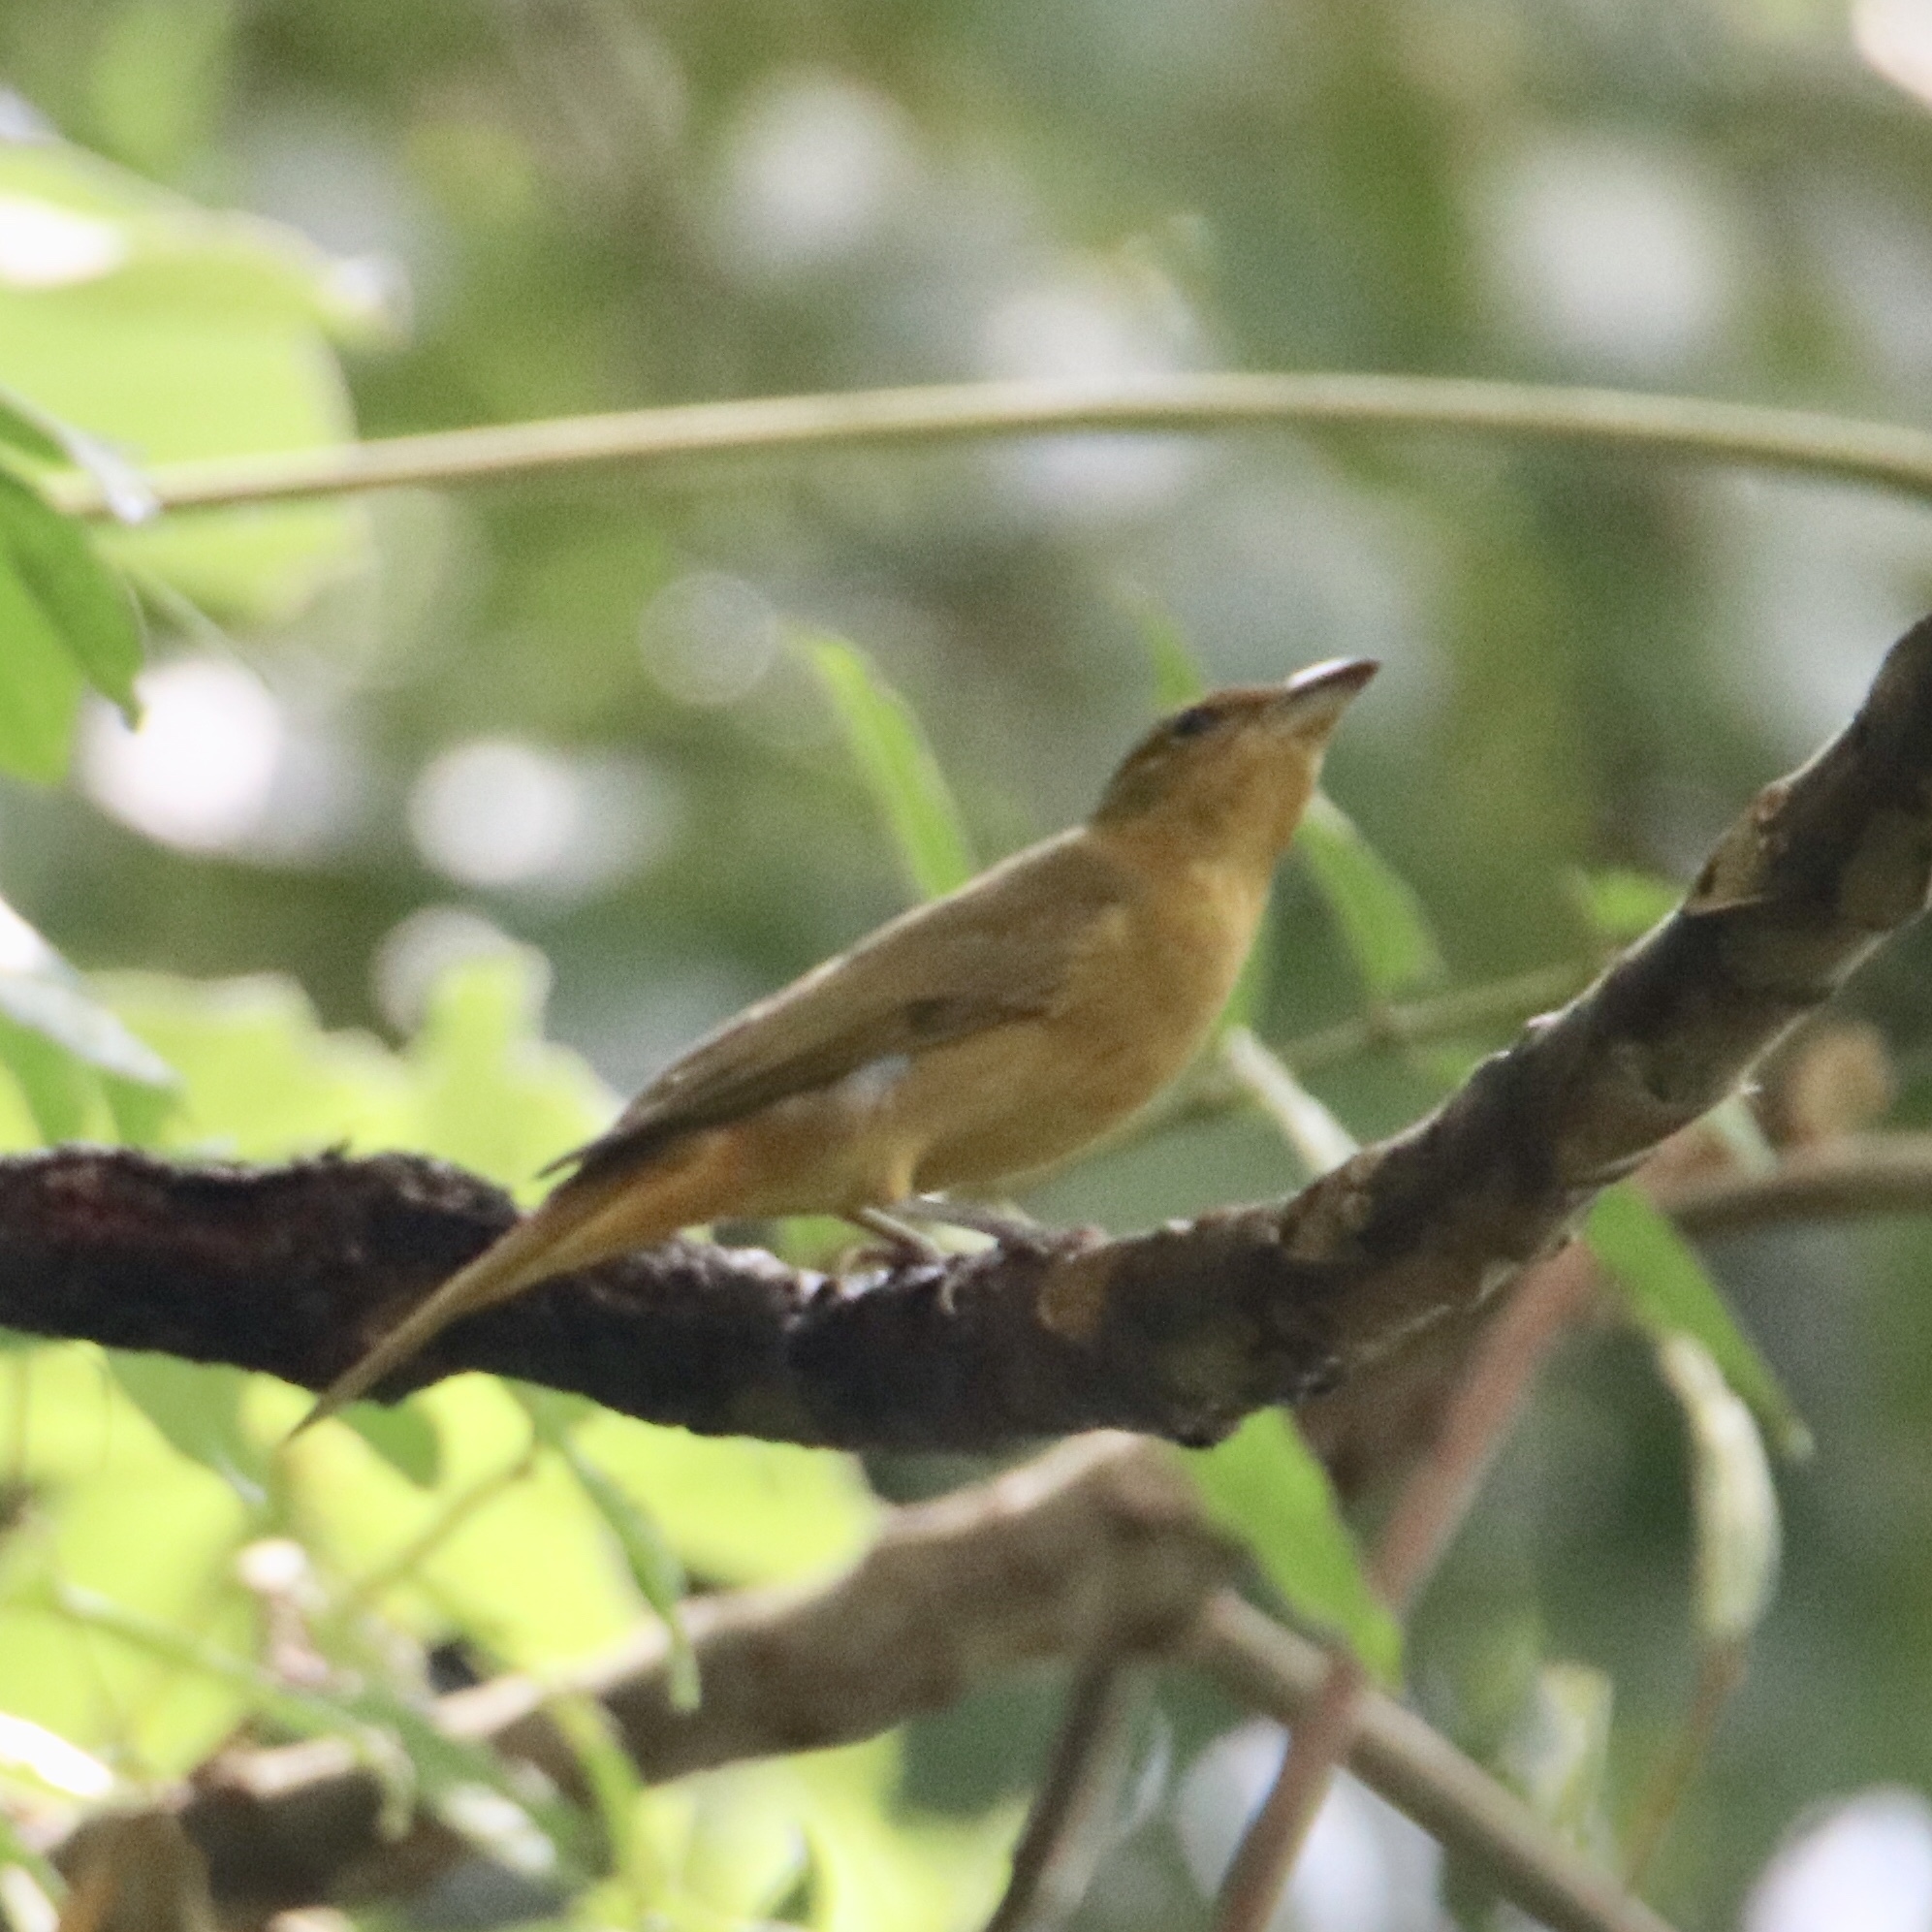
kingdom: Animalia
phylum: Chordata
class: Aves
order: Passeriformes
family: Cardinalidae
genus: Piranga
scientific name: Piranga rubra
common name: Summer tanager
